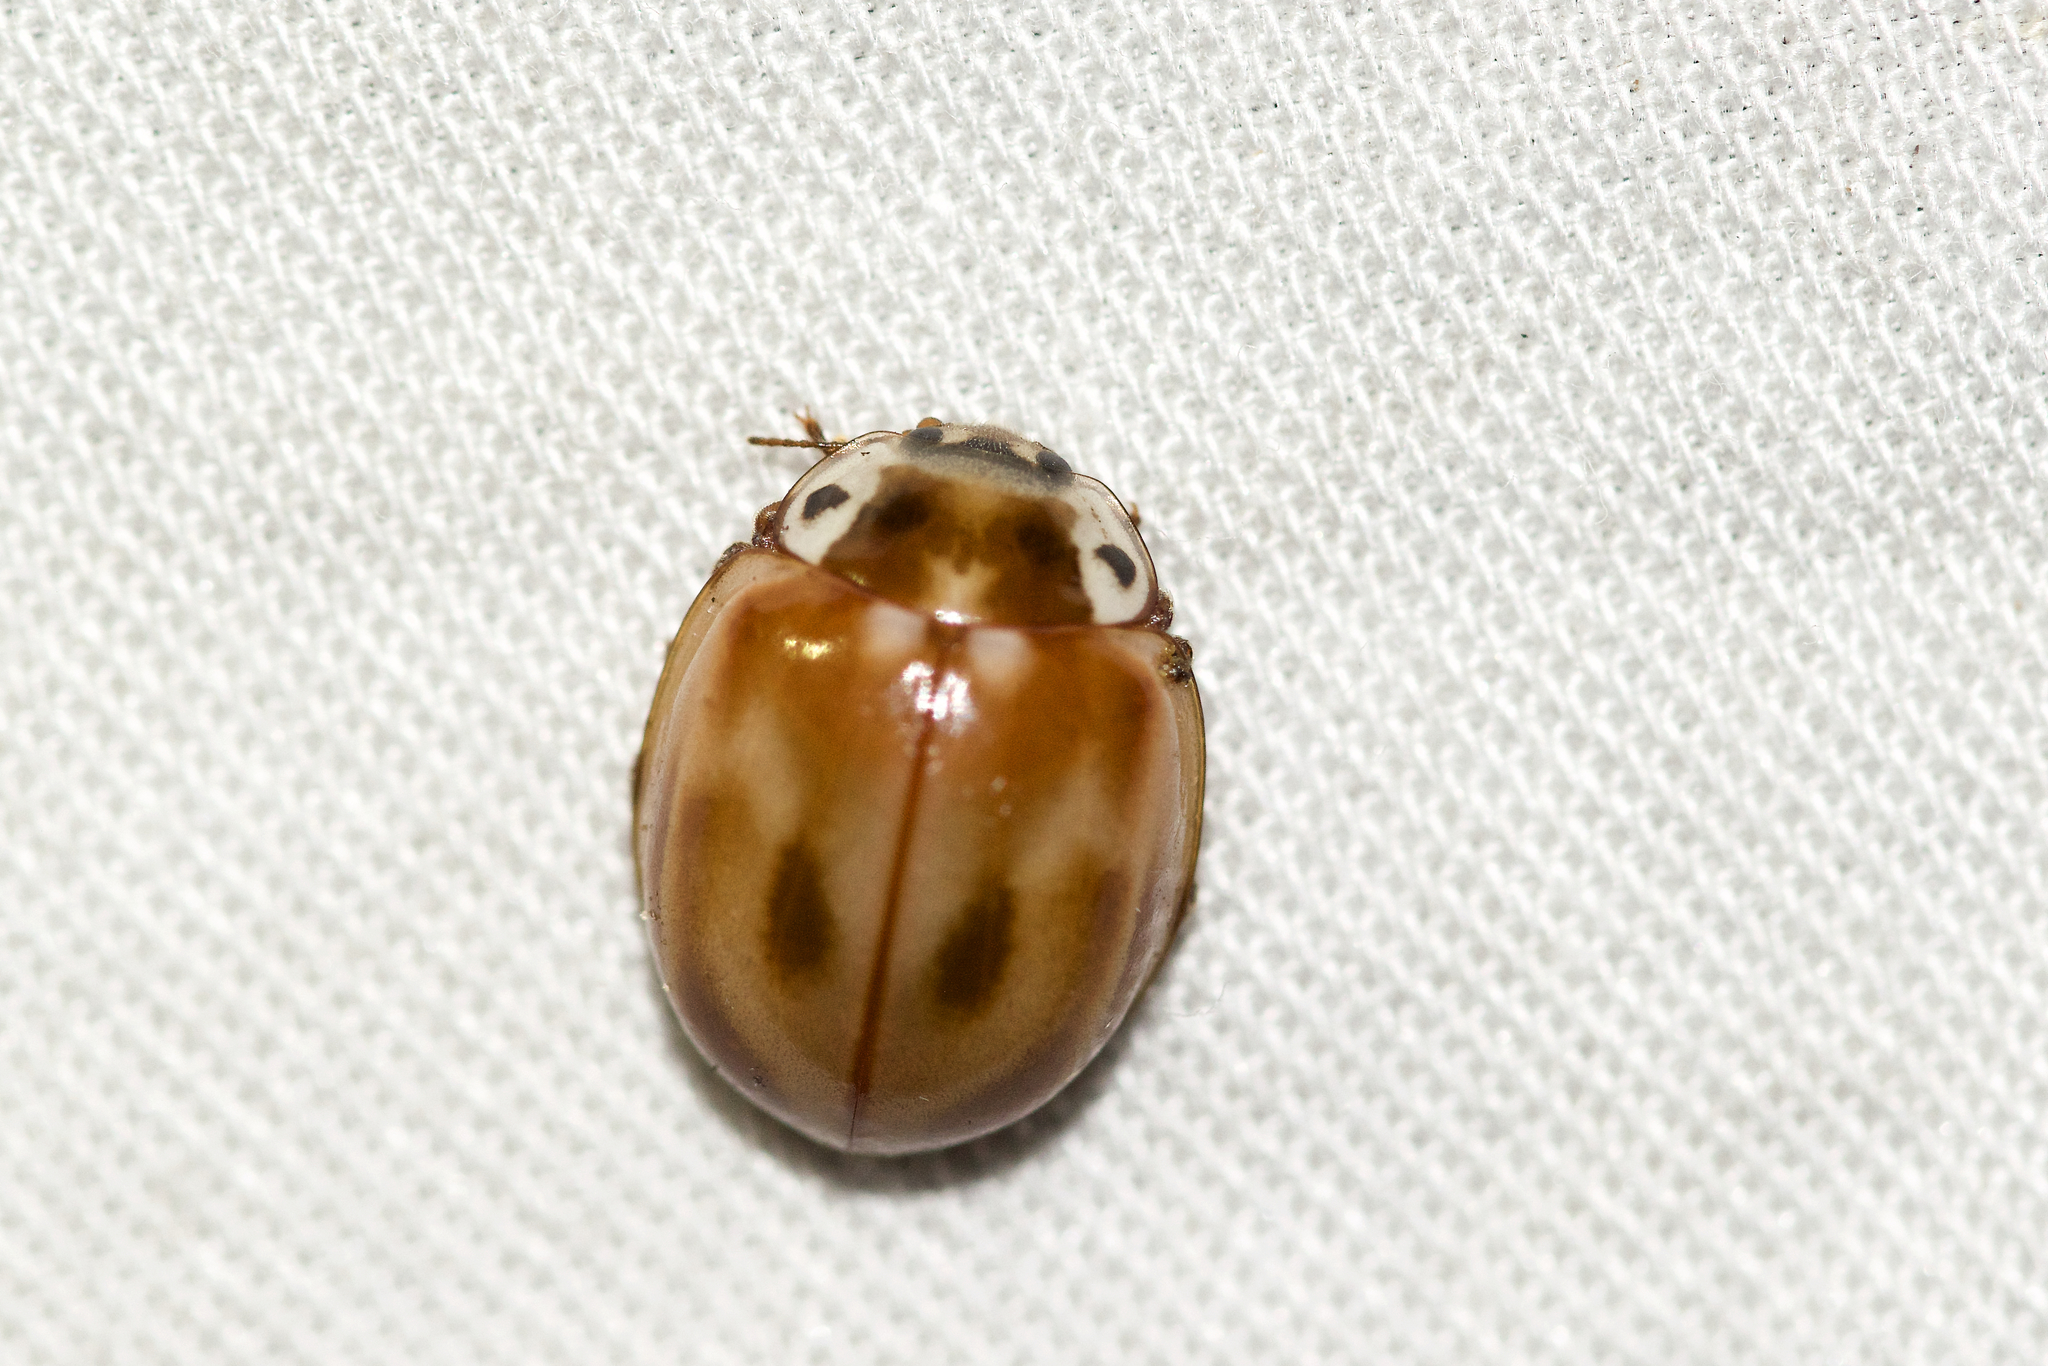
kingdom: Animalia
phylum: Arthropoda
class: Insecta
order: Coleoptera
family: Coccinellidae
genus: Myzia
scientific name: Myzia pullata
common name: Streaked lady beetle
